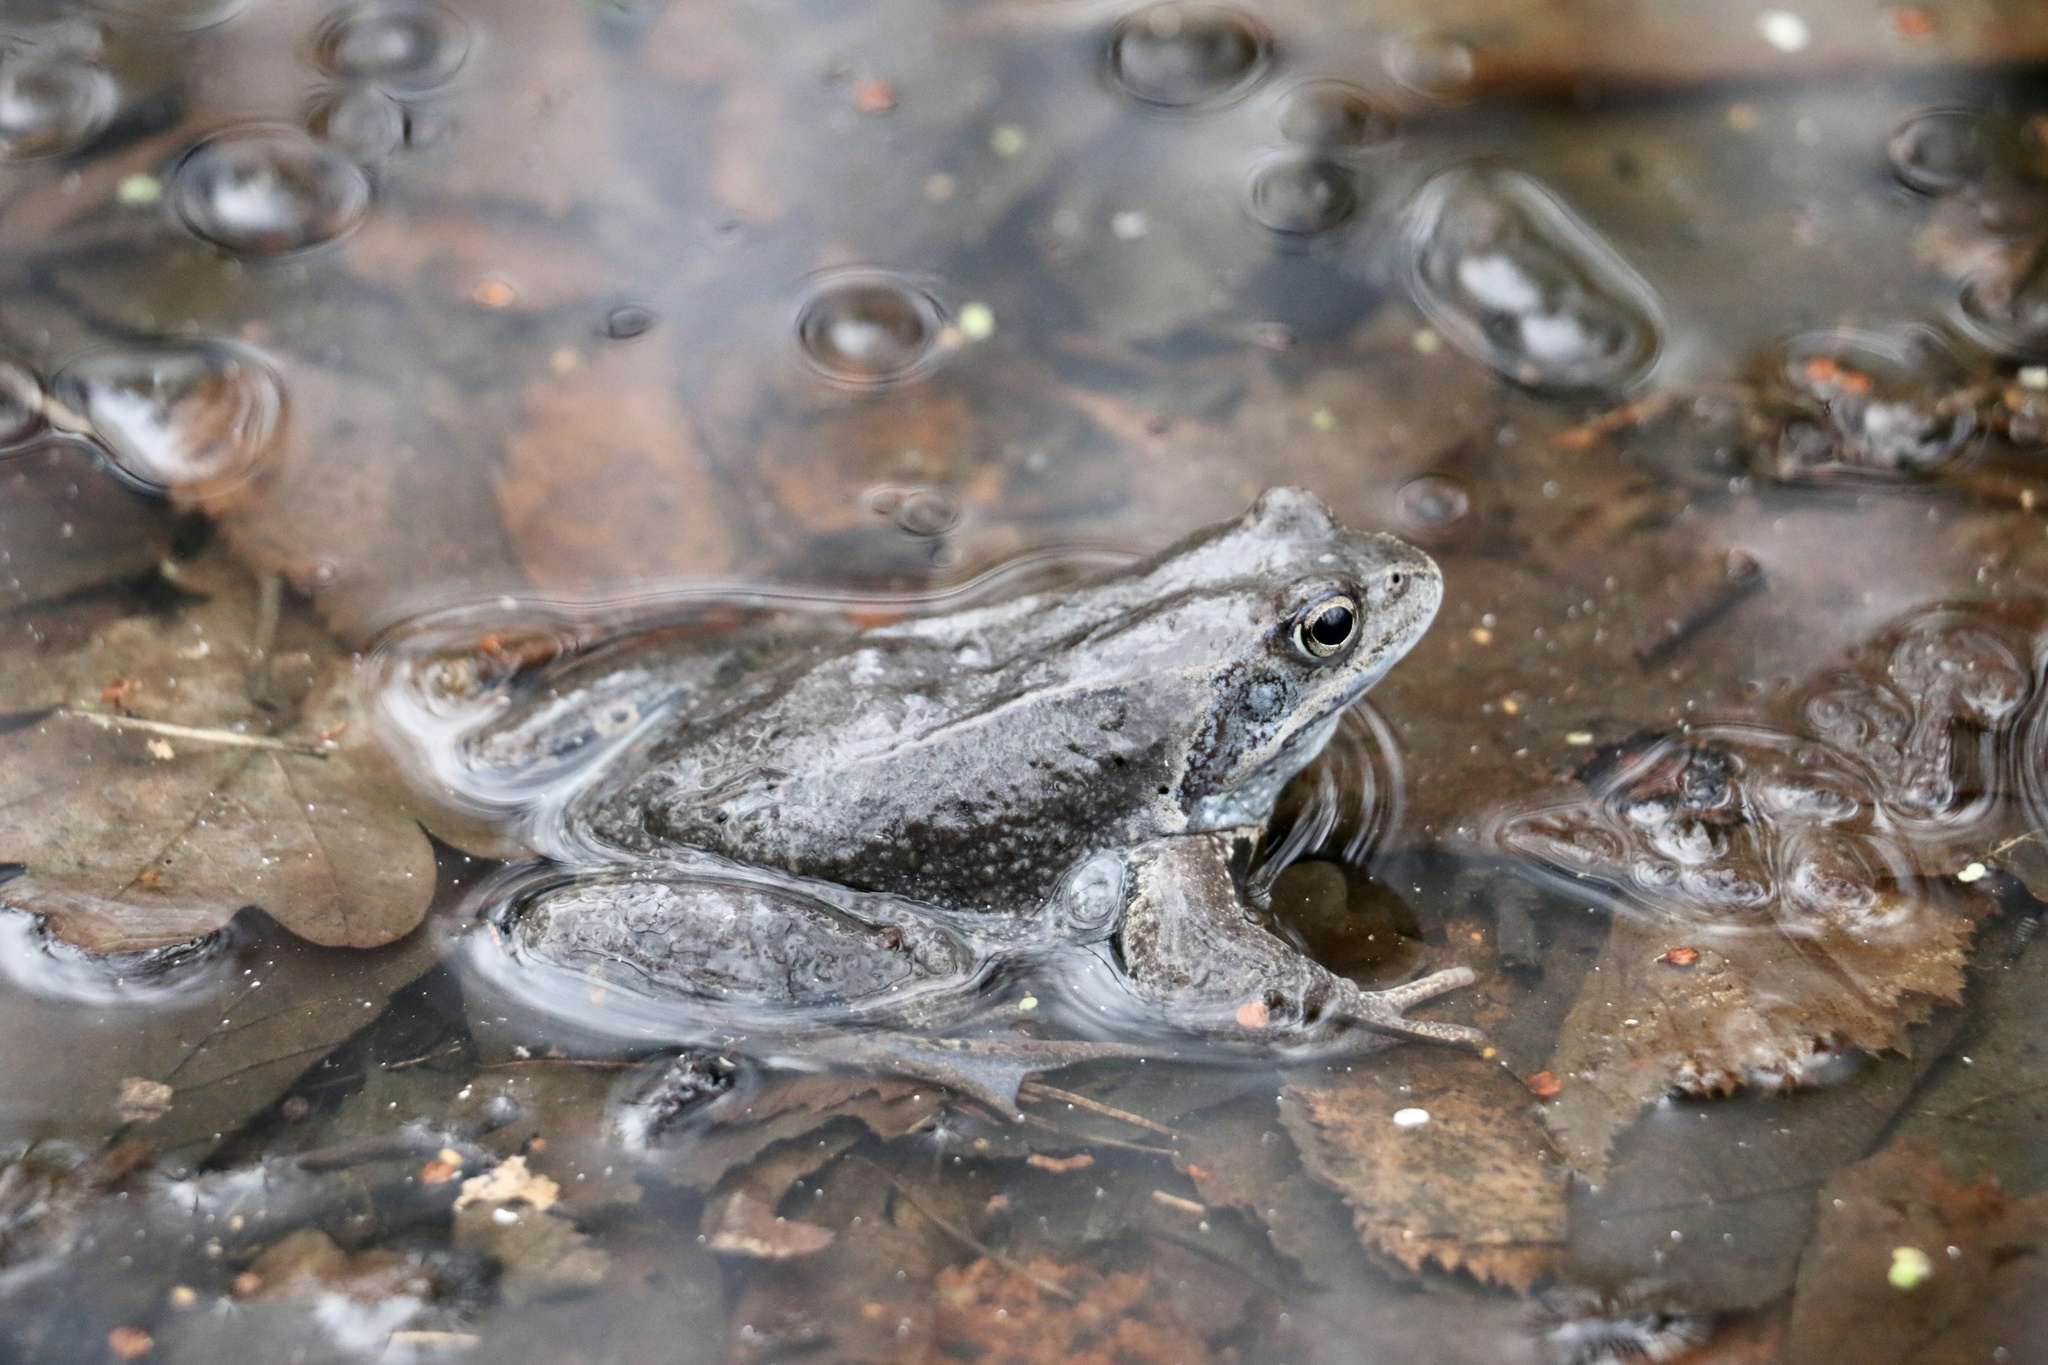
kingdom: Animalia
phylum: Chordata
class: Amphibia
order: Anura
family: Ranidae
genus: Rana
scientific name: Rana temporaria
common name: Common frog
